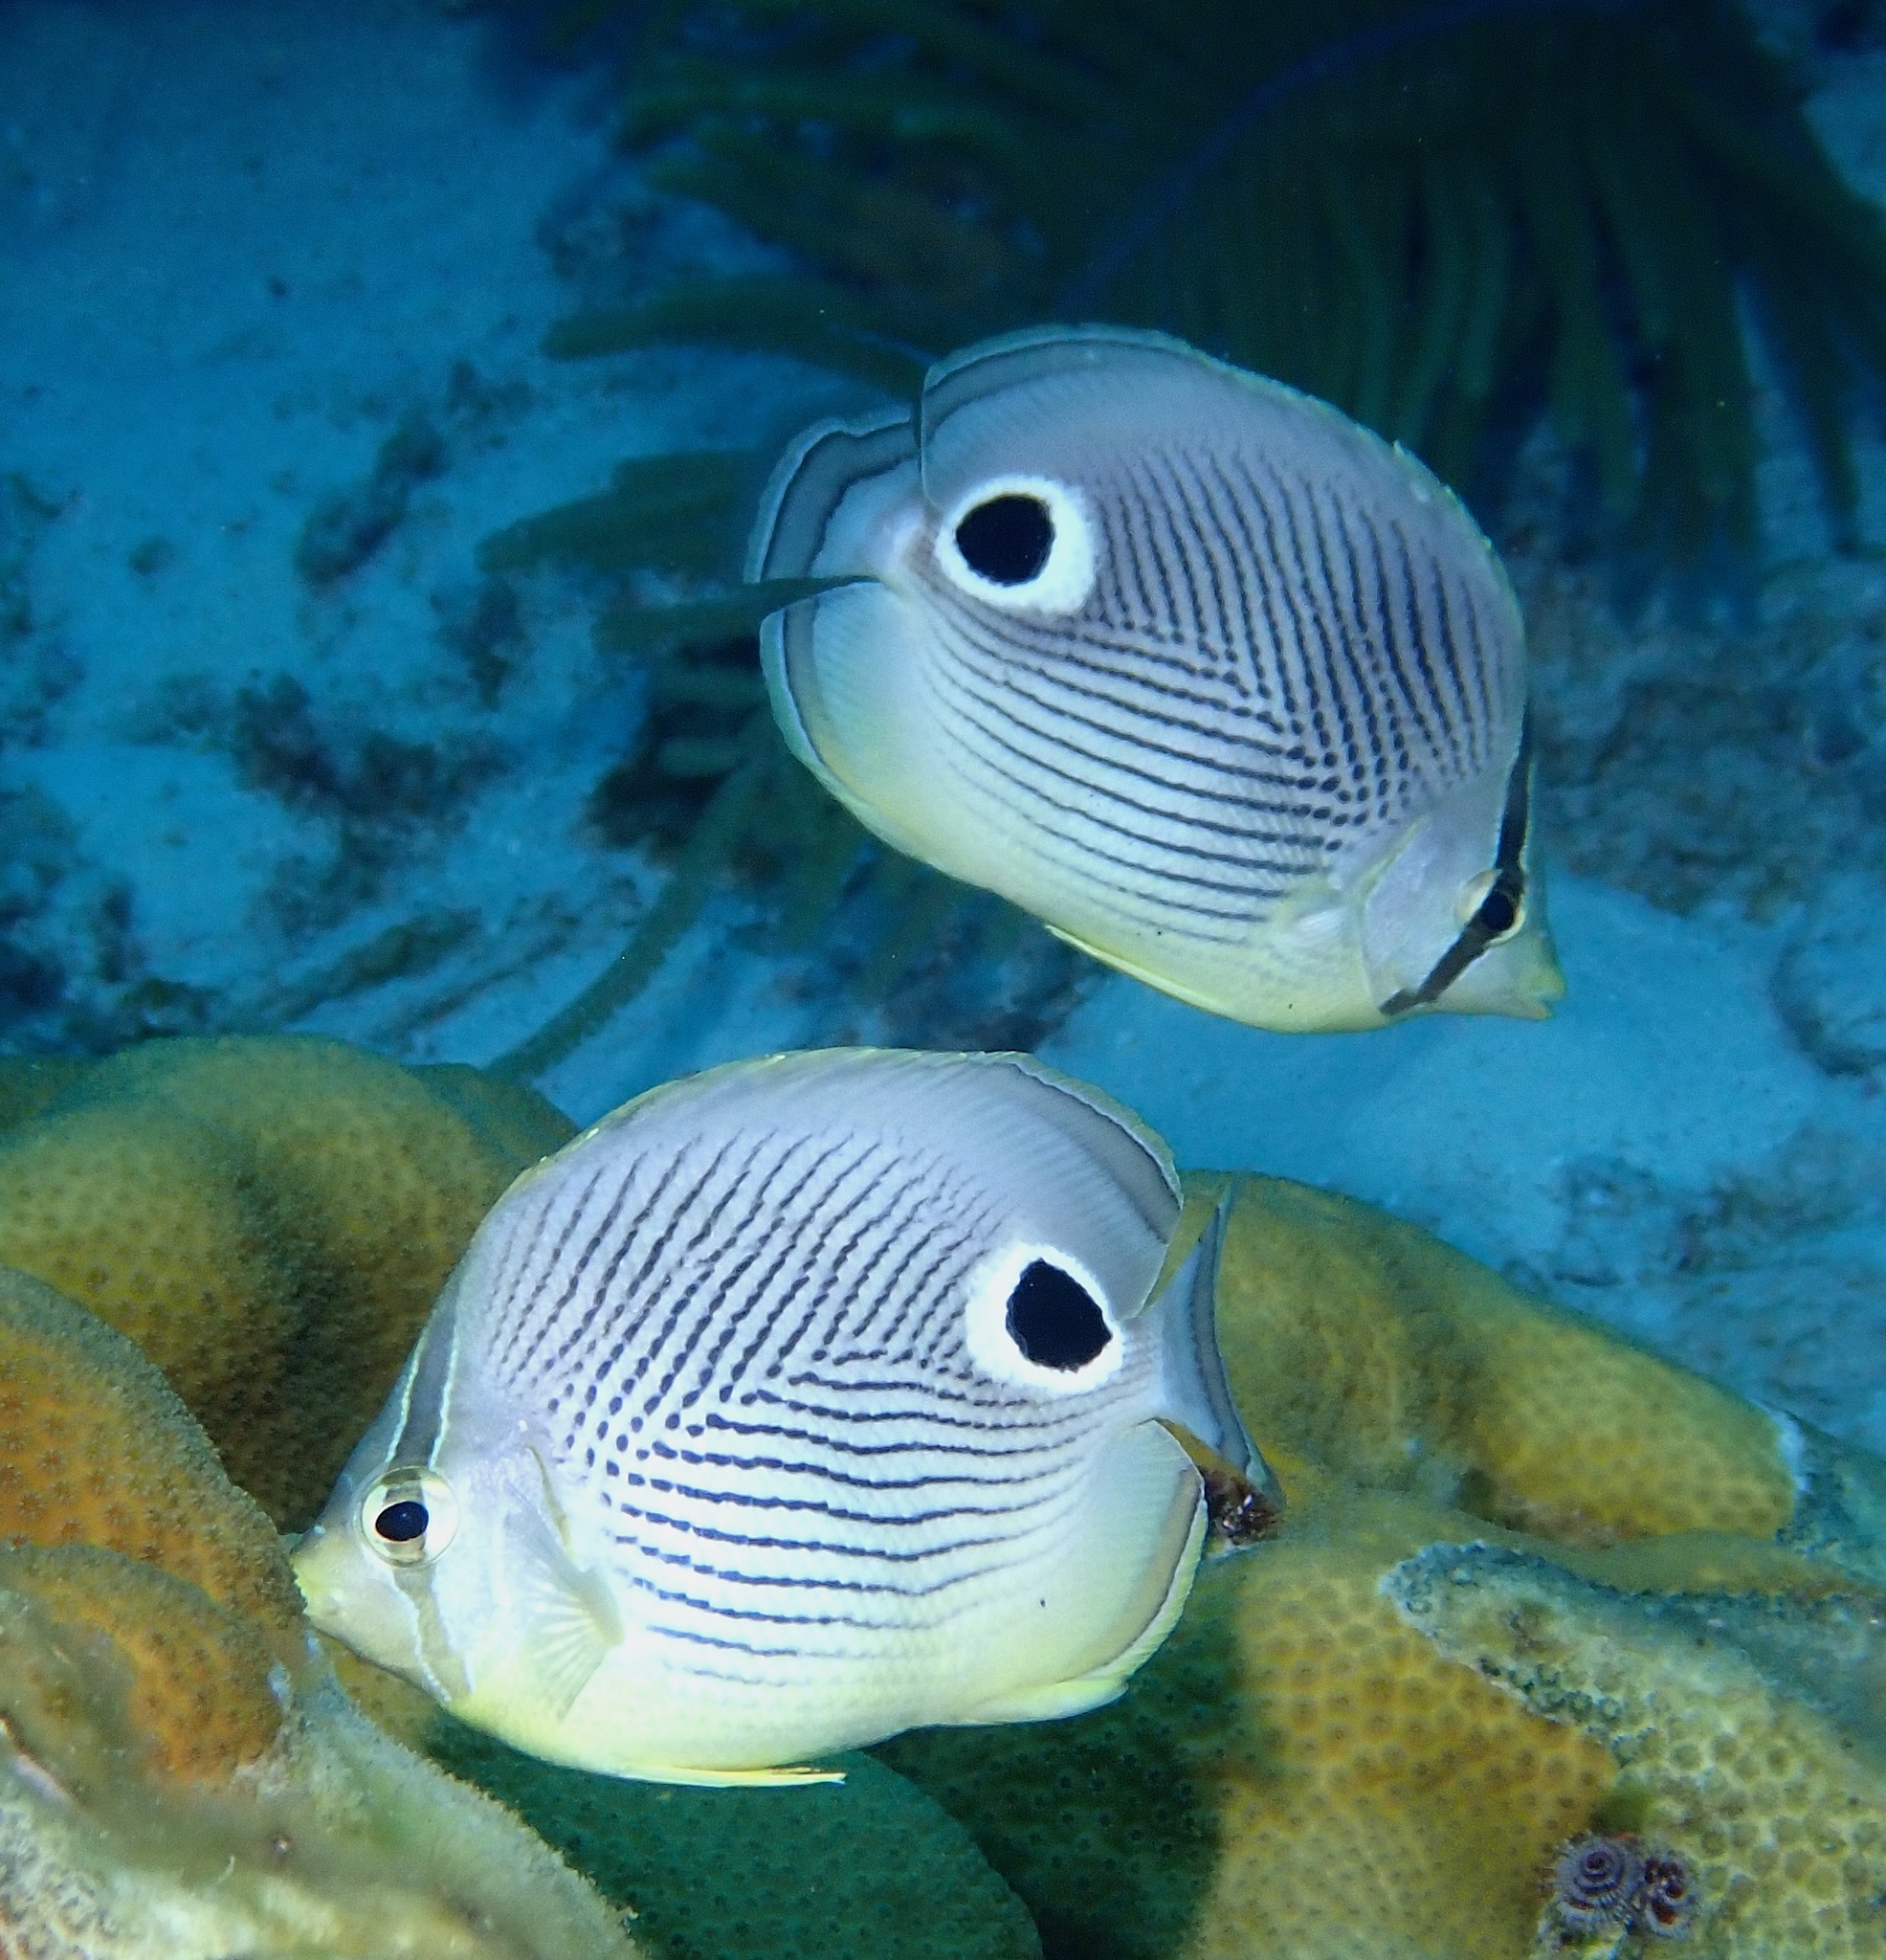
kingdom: Animalia
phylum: Chordata
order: Perciformes
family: Chaetodontidae
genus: Chaetodon
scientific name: Chaetodon capistratus
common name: Kete
